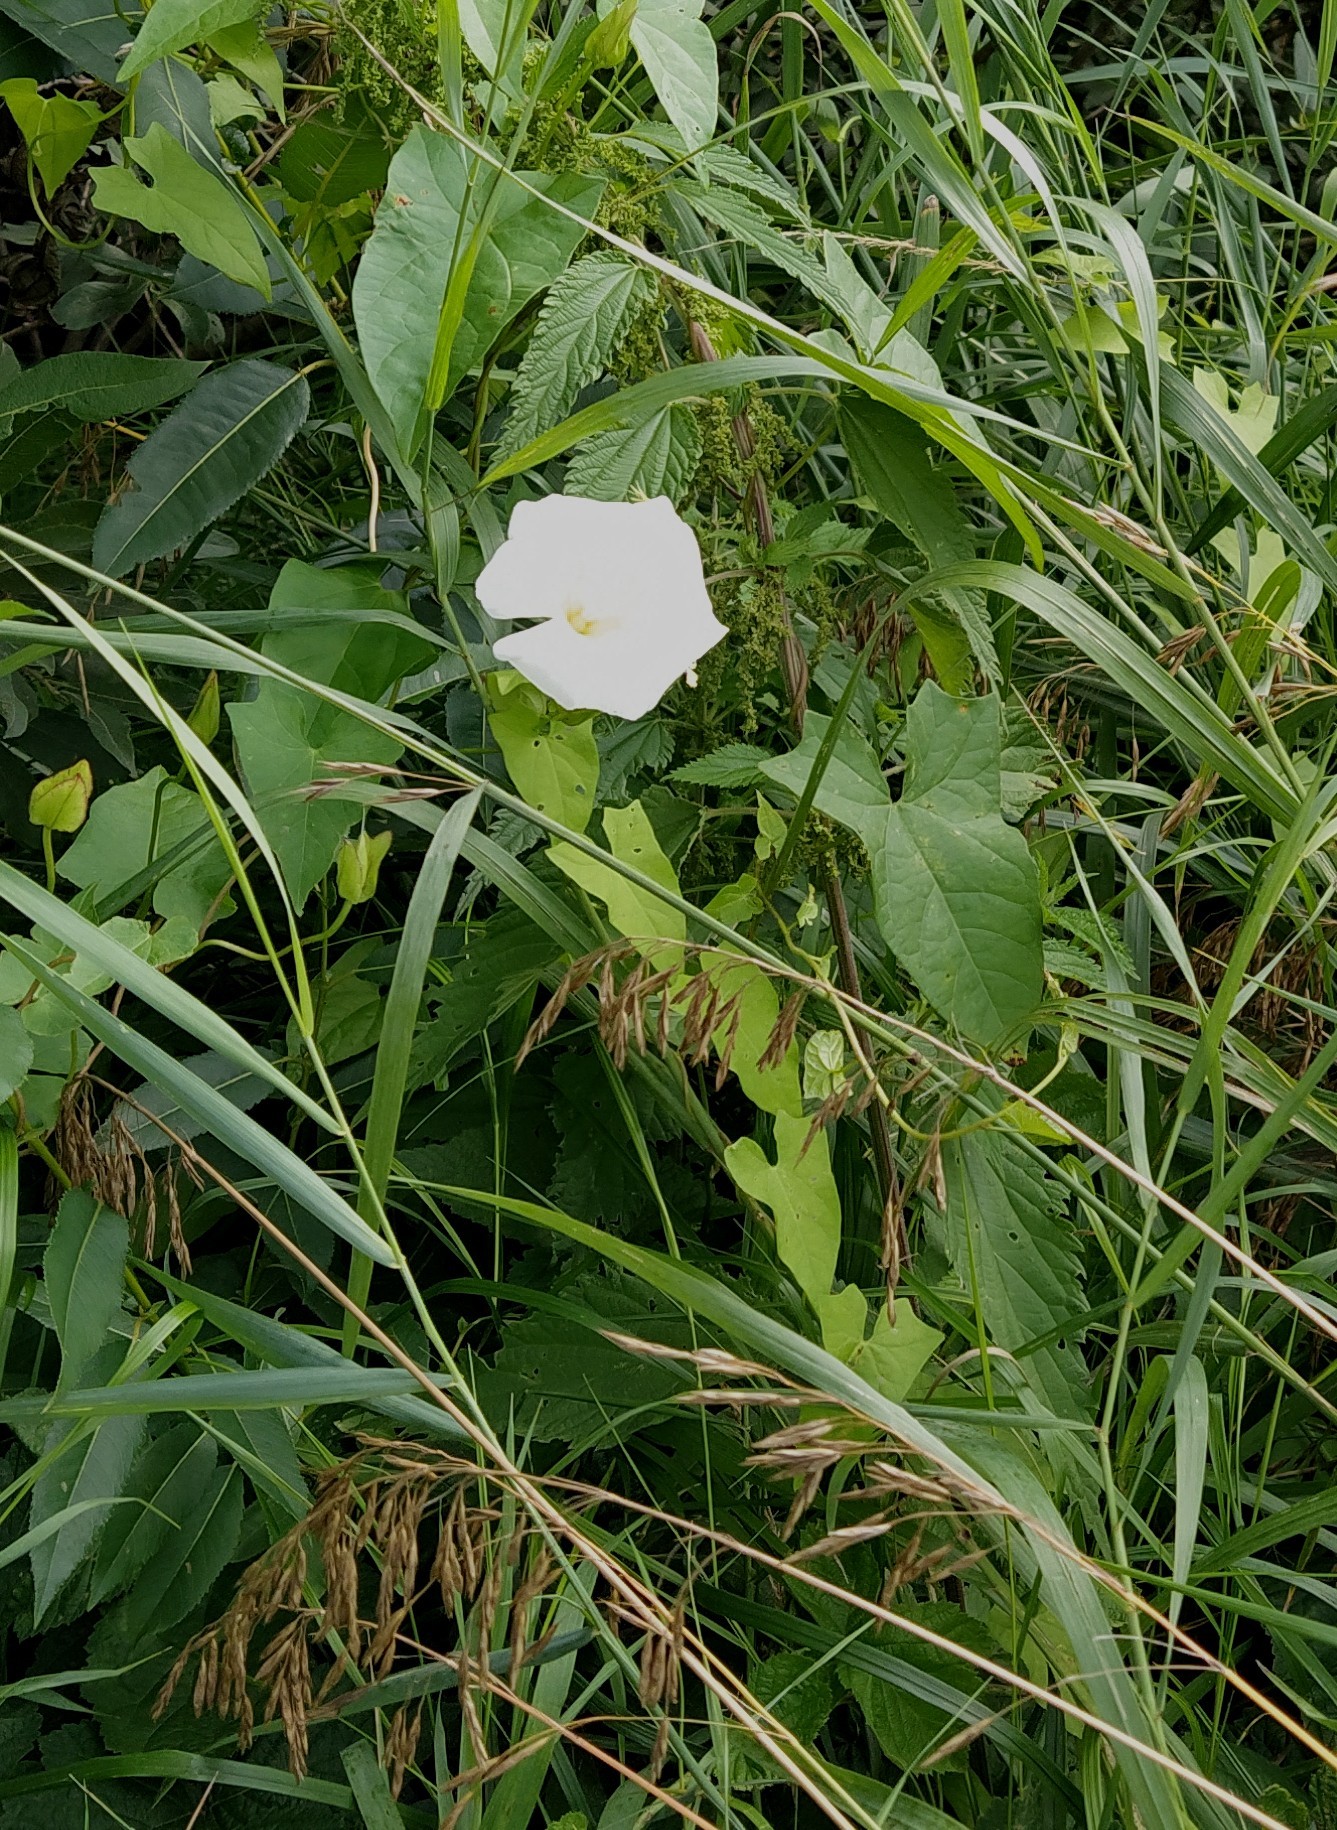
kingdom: Plantae
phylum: Tracheophyta
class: Magnoliopsida
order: Solanales
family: Convolvulaceae
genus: Calystegia
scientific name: Calystegia sepium
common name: Hedge bindweed
